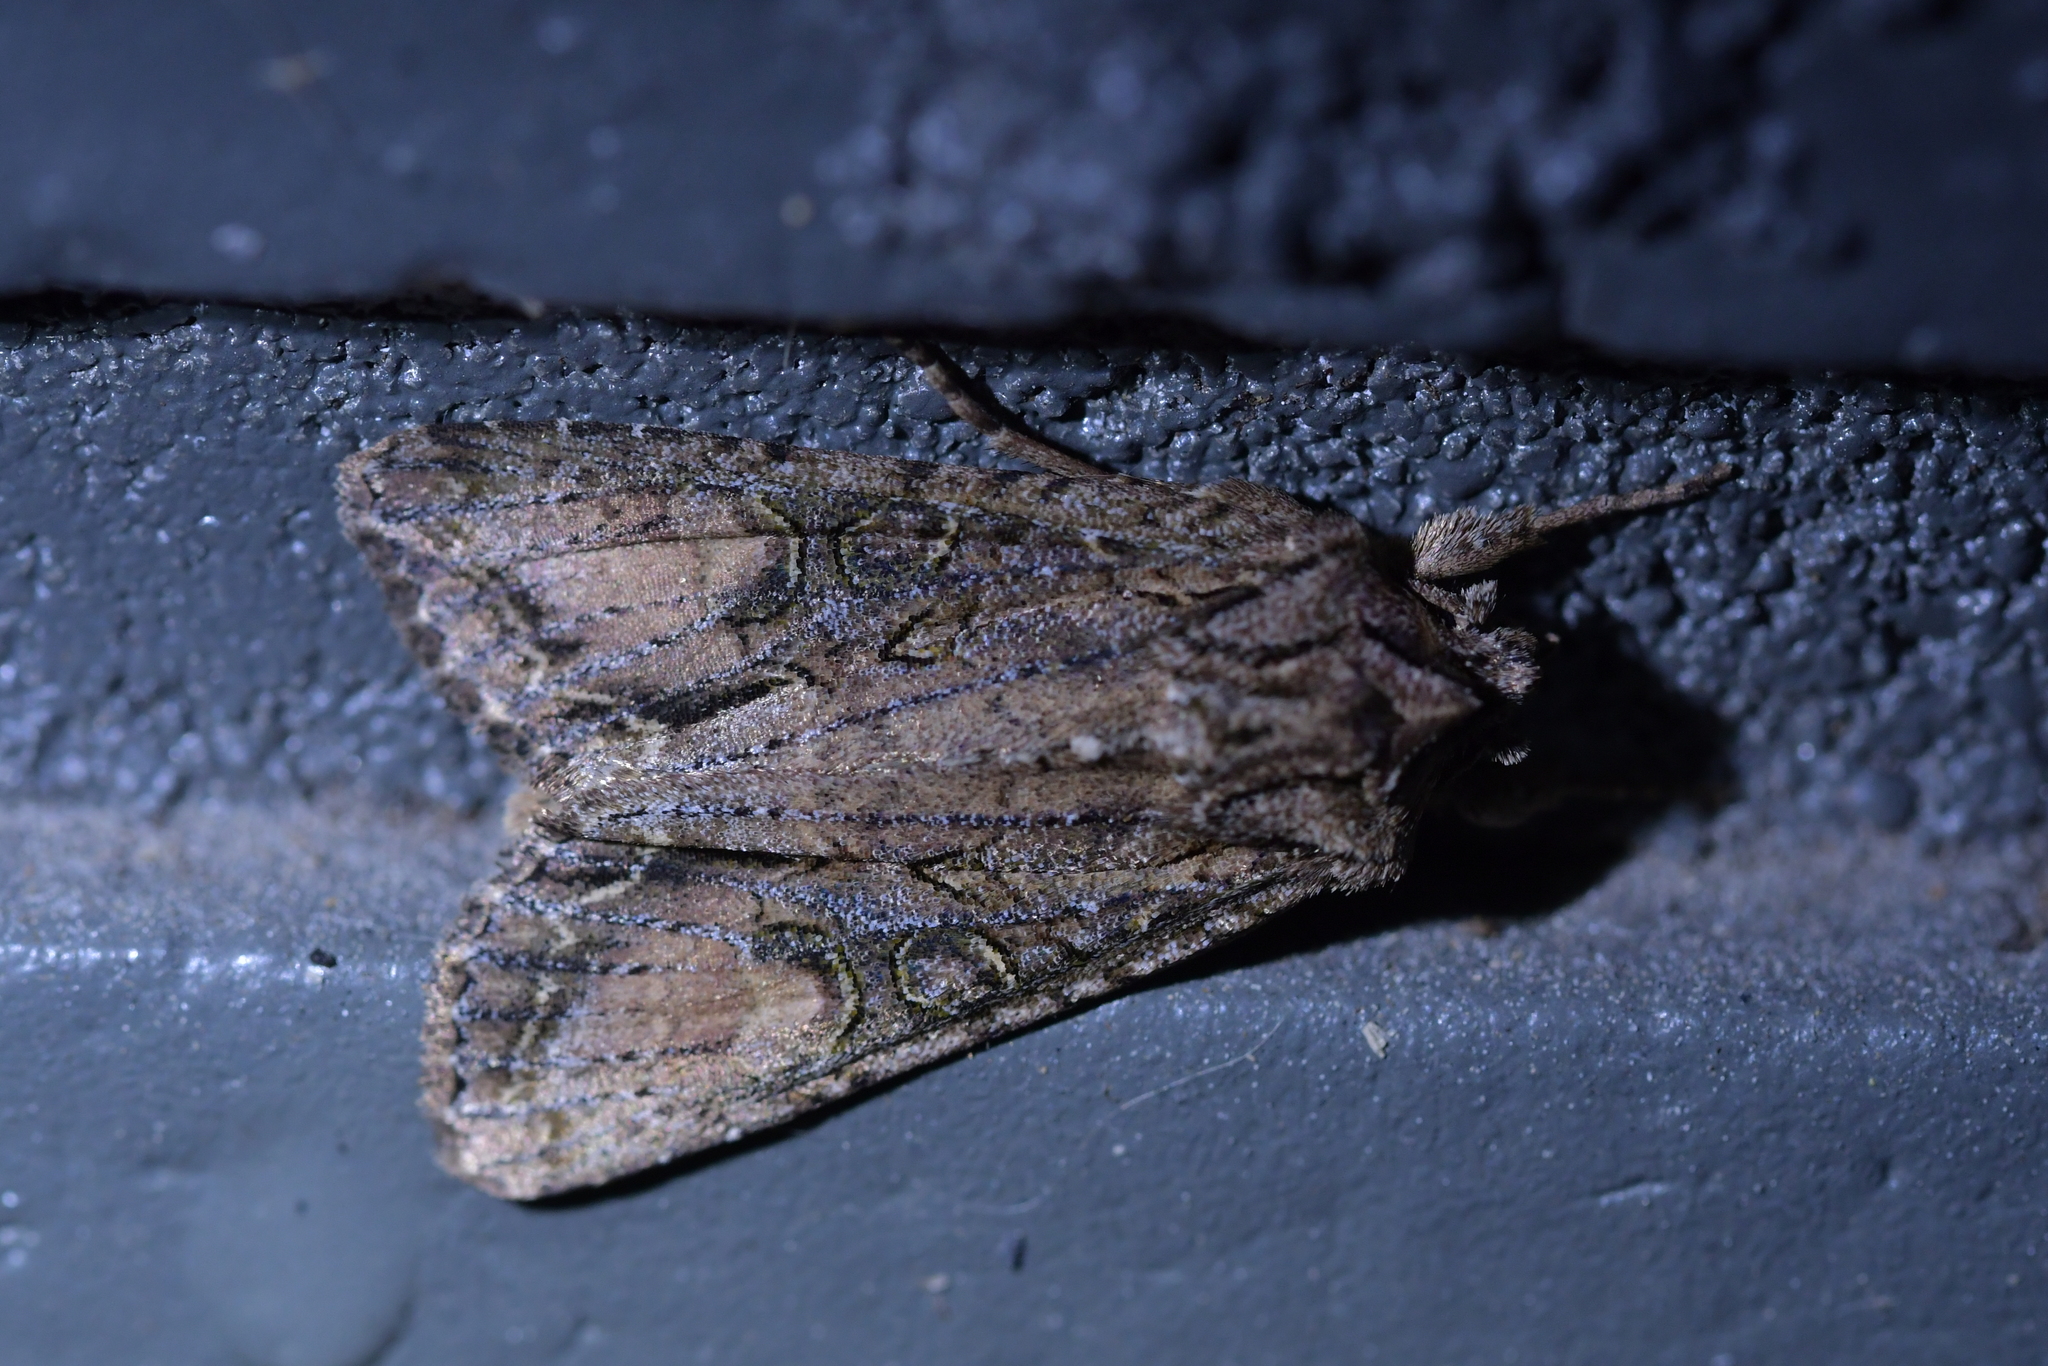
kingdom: Animalia
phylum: Arthropoda
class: Insecta
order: Lepidoptera
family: Noctuidae
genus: Ichneutica
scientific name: Ichneutica mutans
